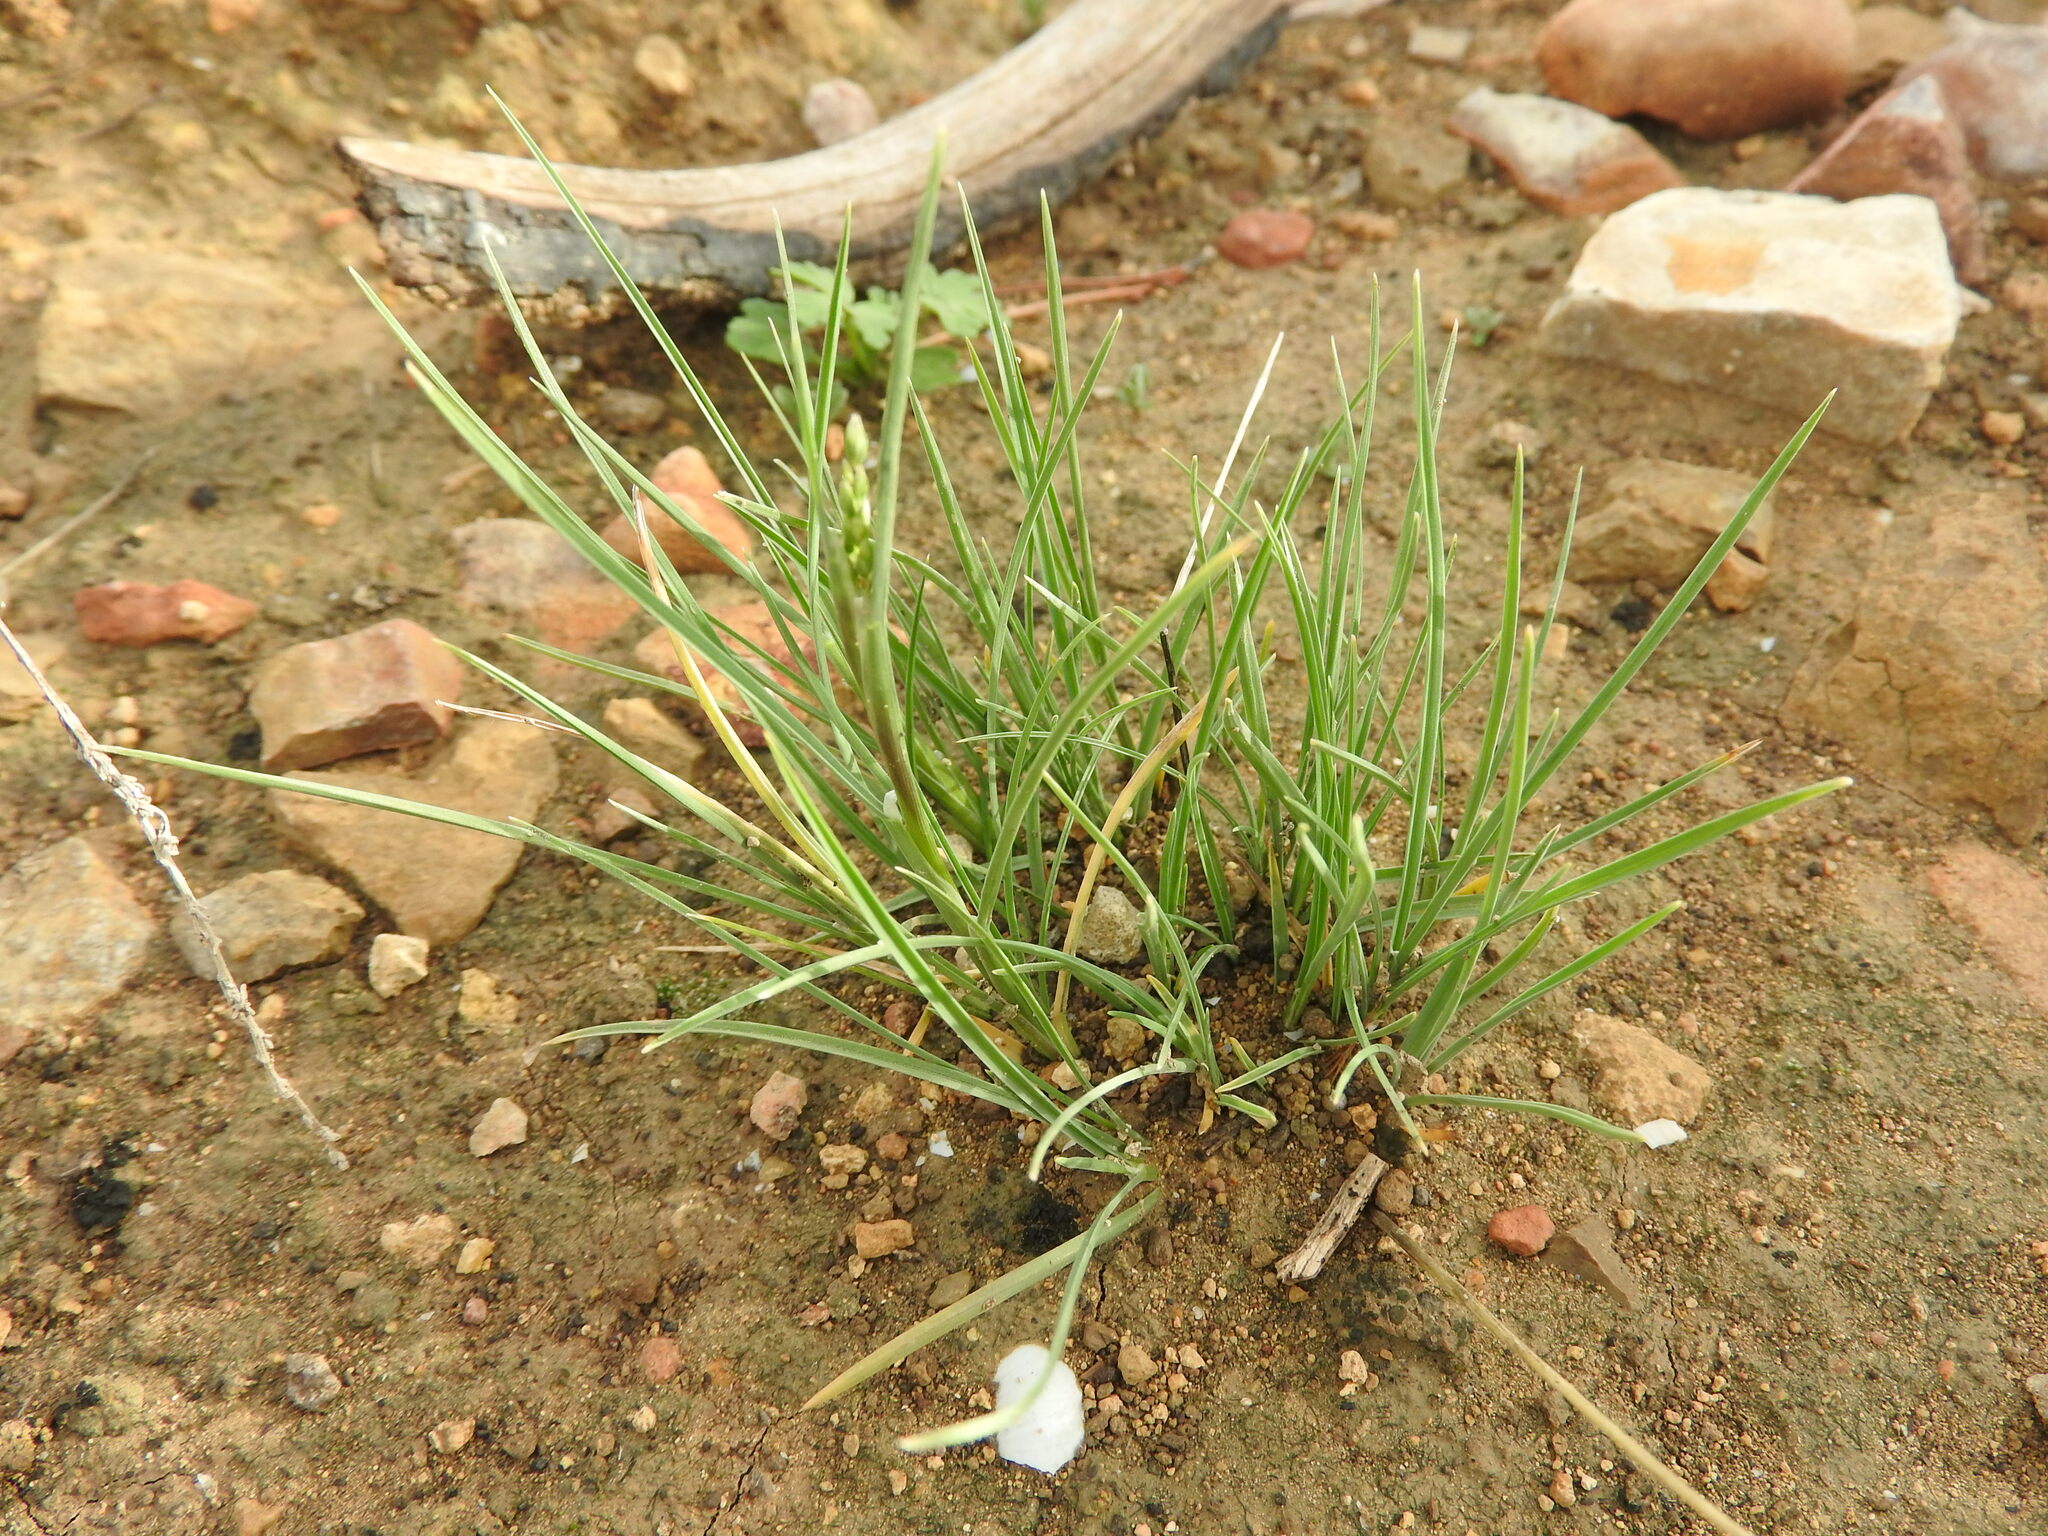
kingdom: Plantae
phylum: Tracheophyta
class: Liliopsida
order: Poales
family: Poaceae
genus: Poa
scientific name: Poa bulbosa
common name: Bulbous bluegrass
